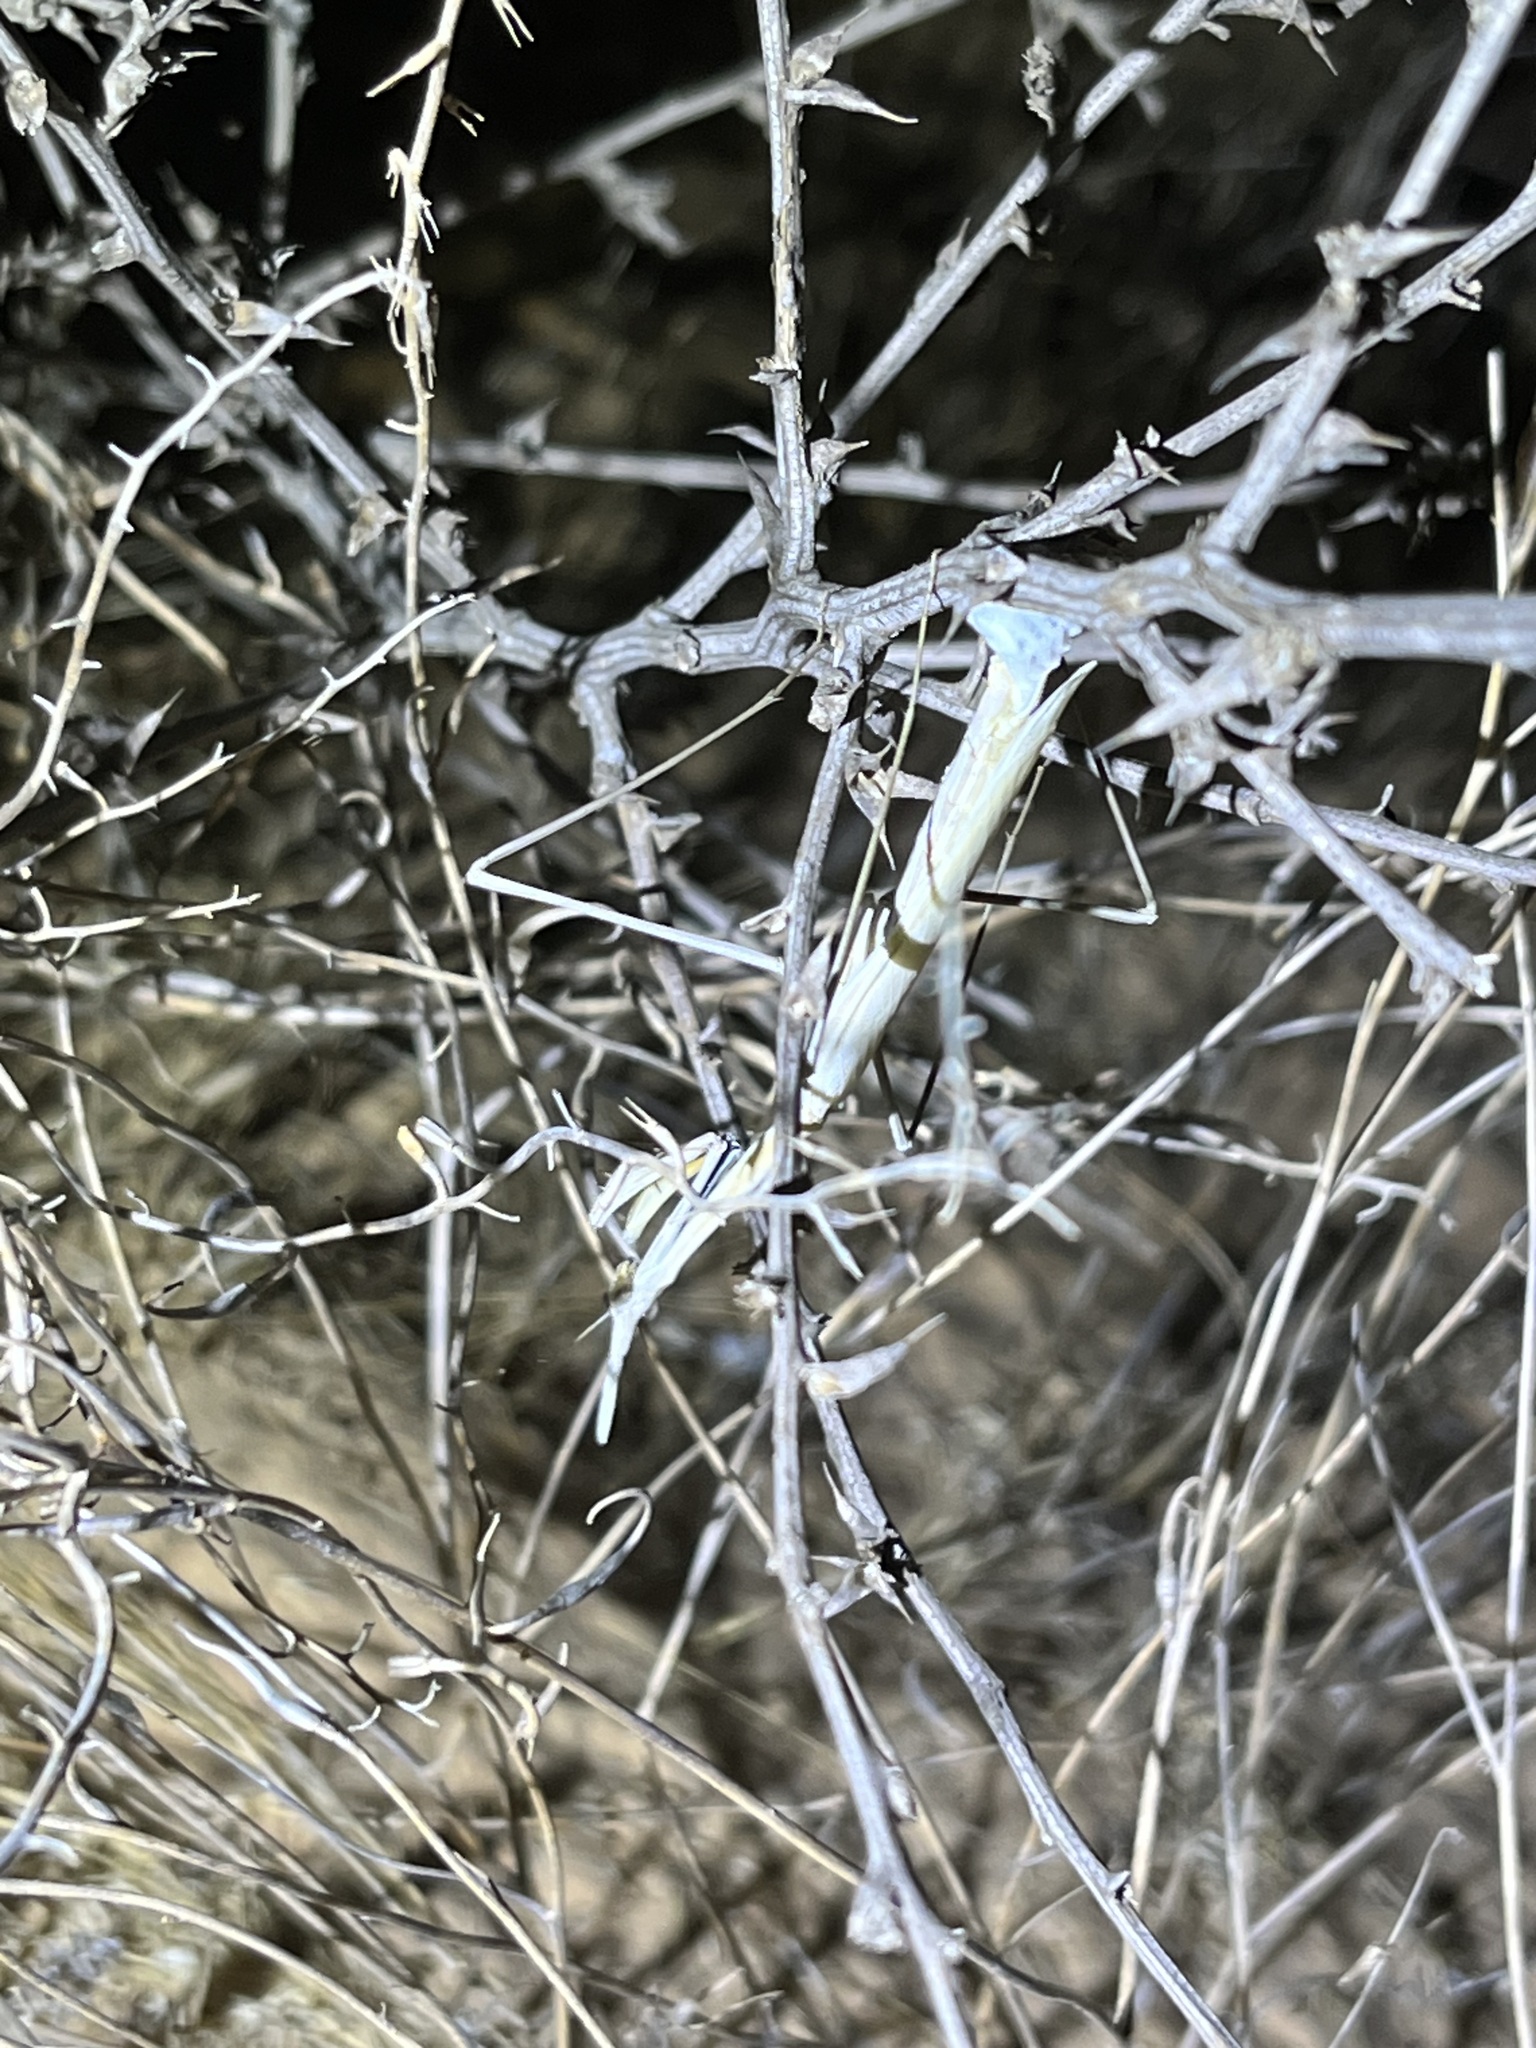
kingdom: Animalia
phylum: Arthropoda
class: Insecta
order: Mantodea
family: Empusidae
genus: Hypsicorypha
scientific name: Hypsicorypha gracilis
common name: Sublime conehead mantis
